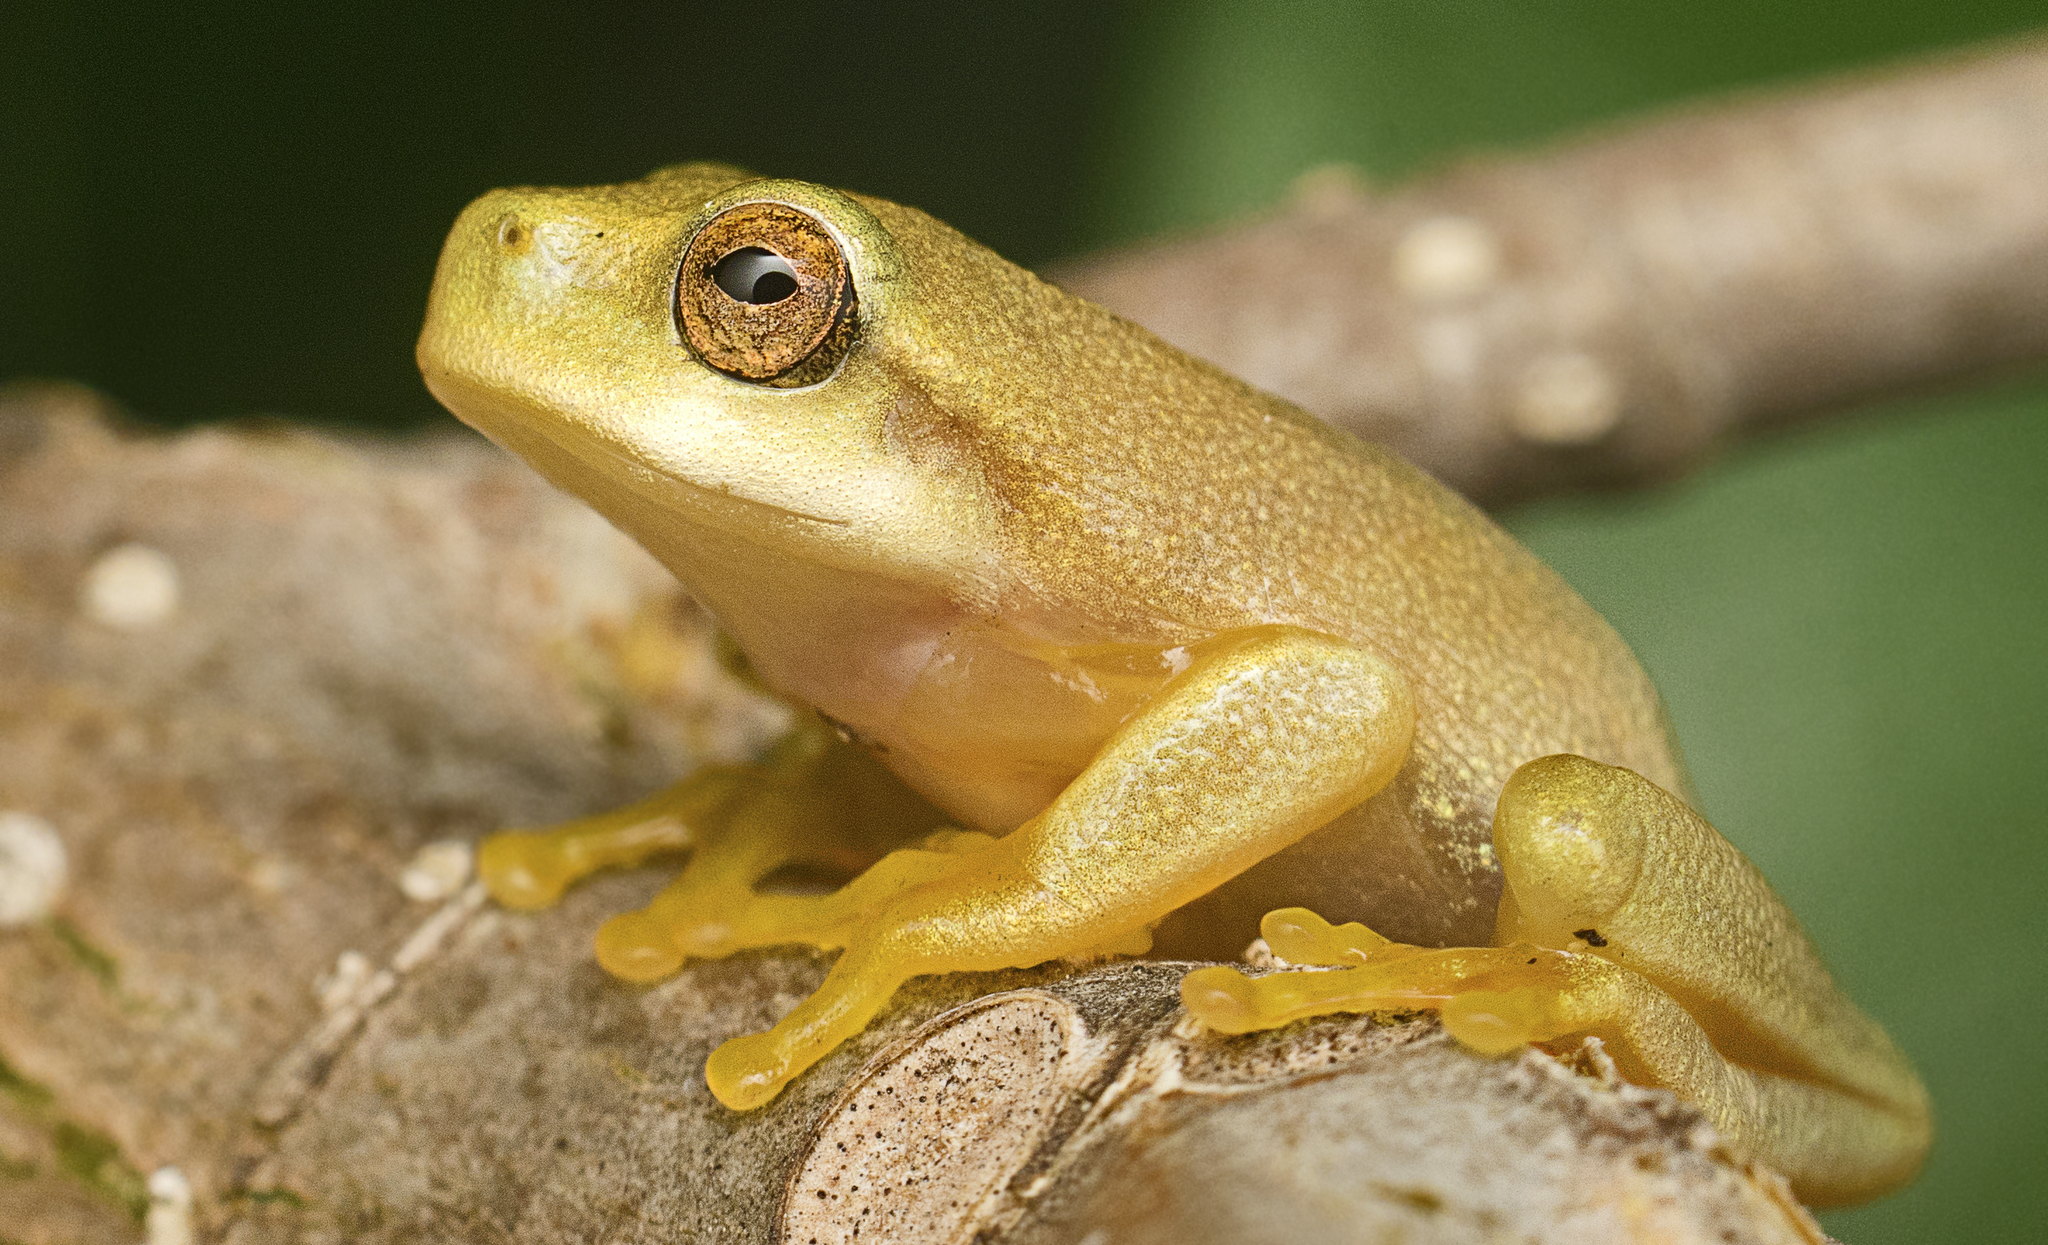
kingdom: Animalia
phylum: Chordata
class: Amphibia
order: Anura
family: Pelodryadidae
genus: Ranoidea
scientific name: Ranoidea gracilenta
